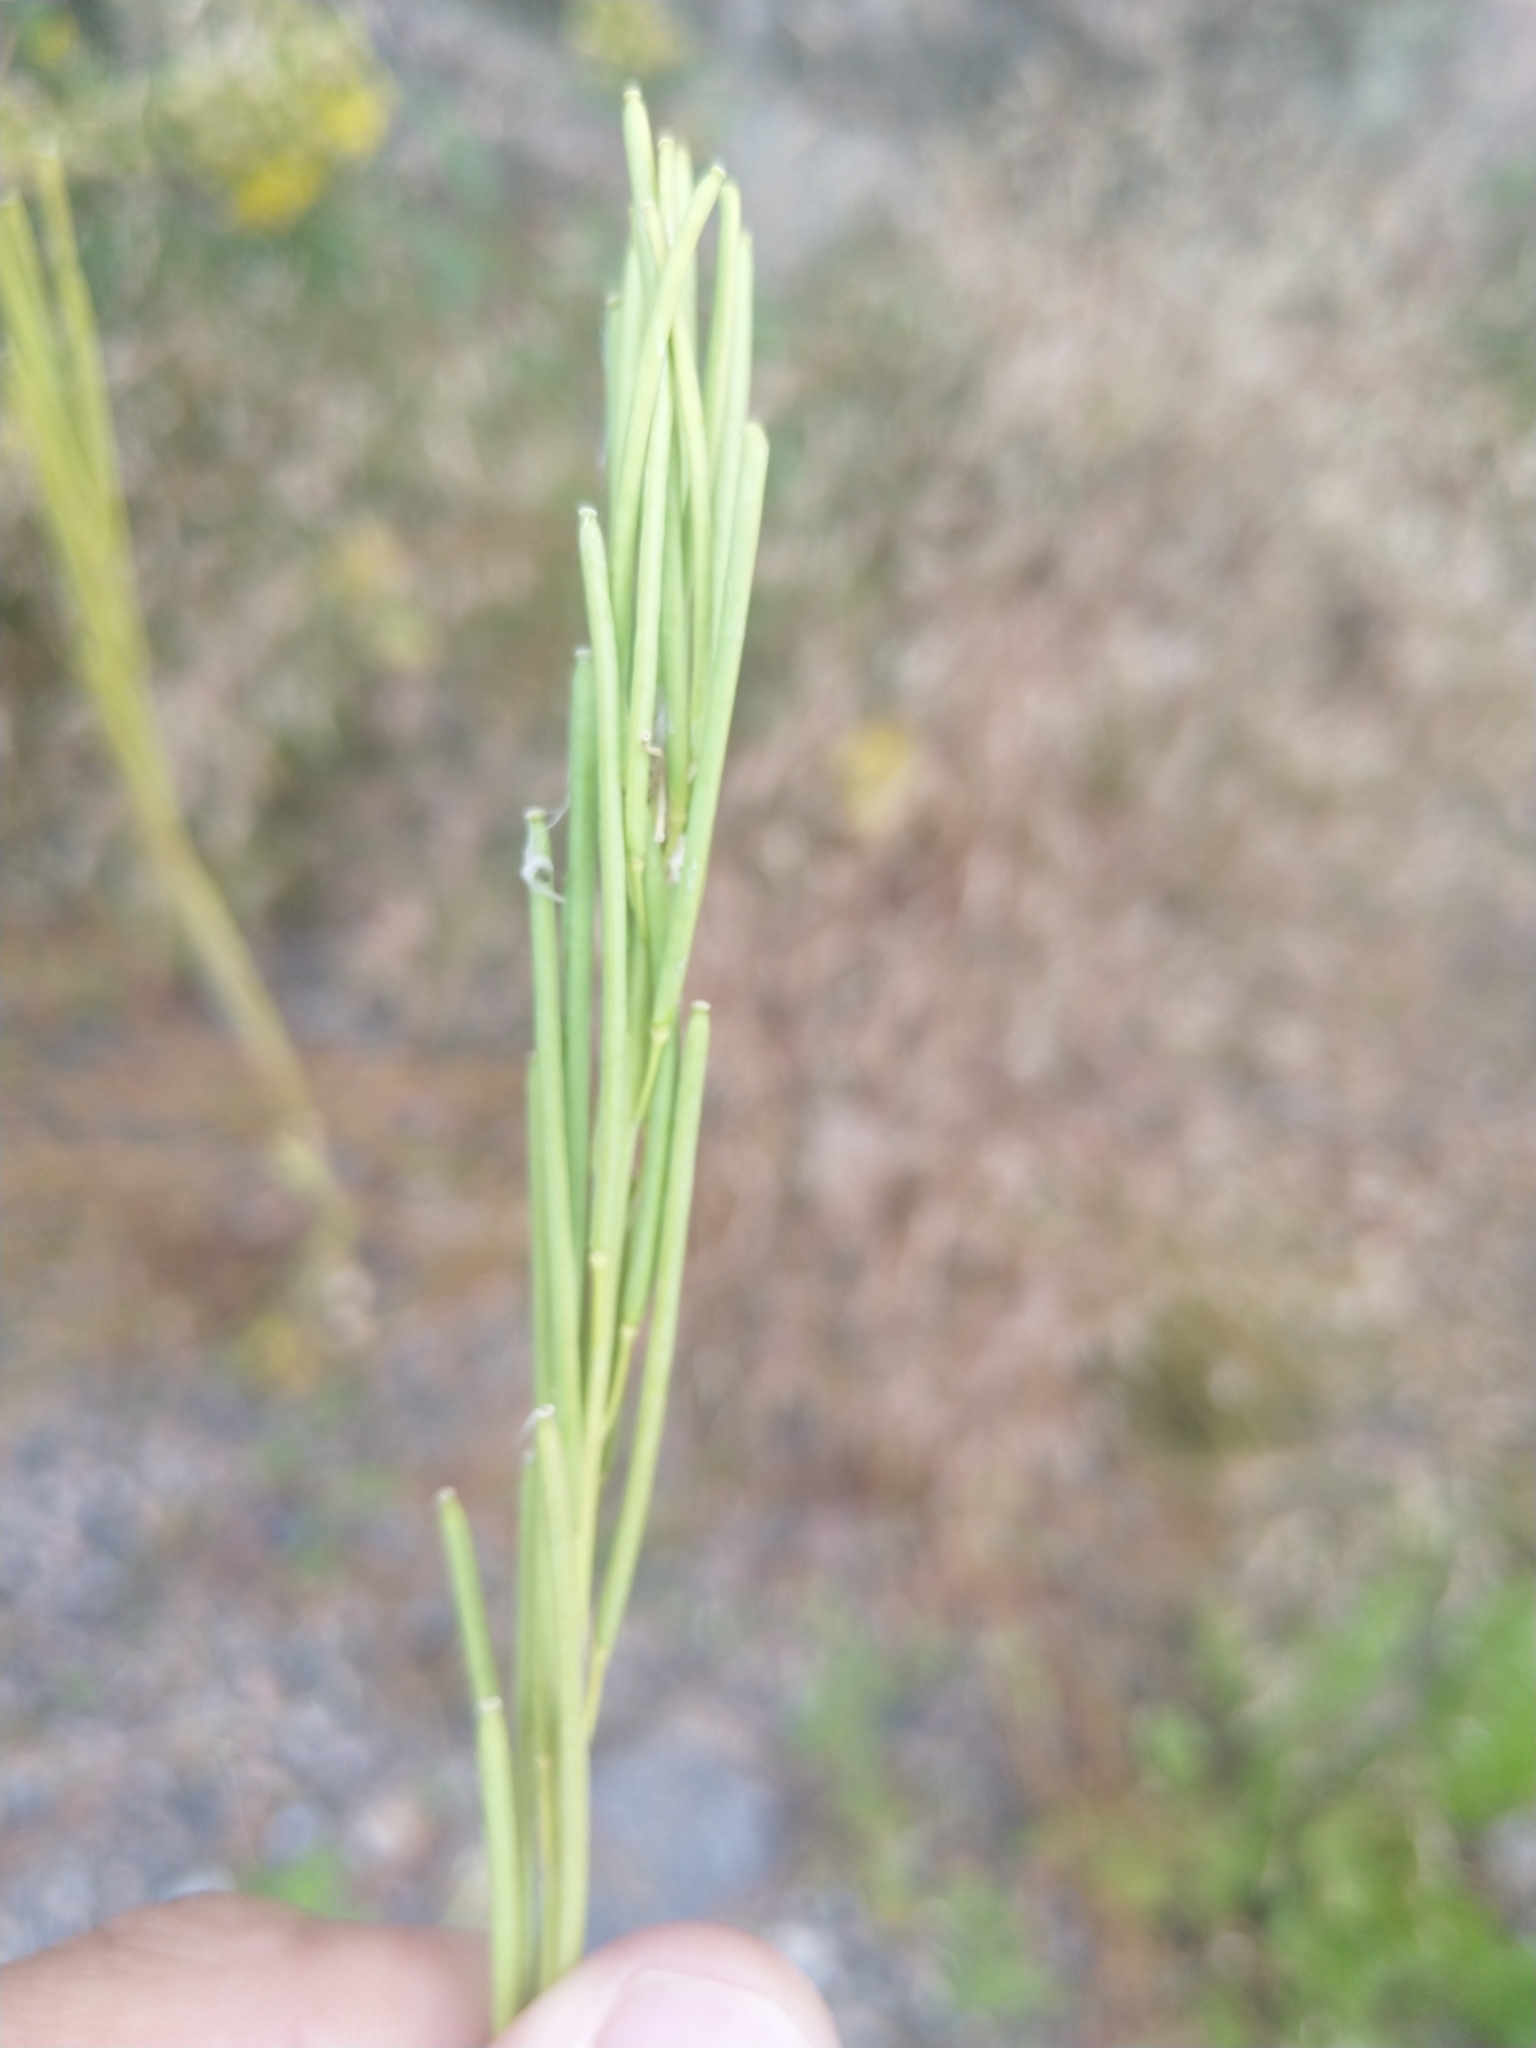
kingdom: Plantae
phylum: Tracheophyta
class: Magnoliopsida
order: Brassicales
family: Brassicaceae
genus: Turritis
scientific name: Turritis glabra
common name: Tower rockcress
